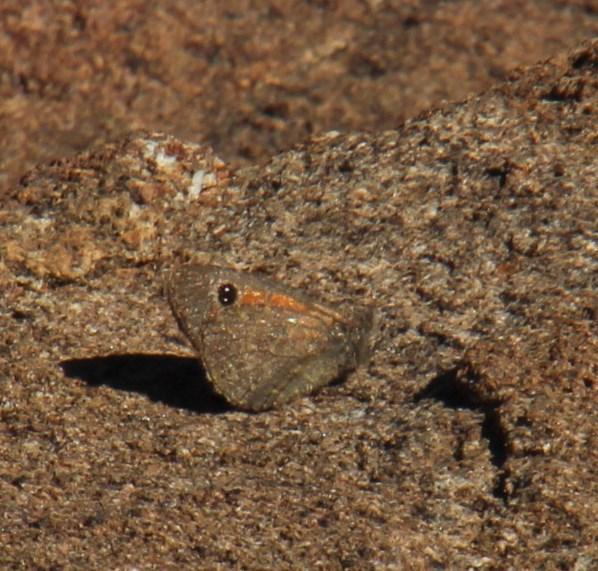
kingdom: Animalia
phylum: Arthropoda
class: Insecta
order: Lepidoptera
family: Nymphalidae
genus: Stygionympha
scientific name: Stygionympha irrorata
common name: Karoo hillside brown
